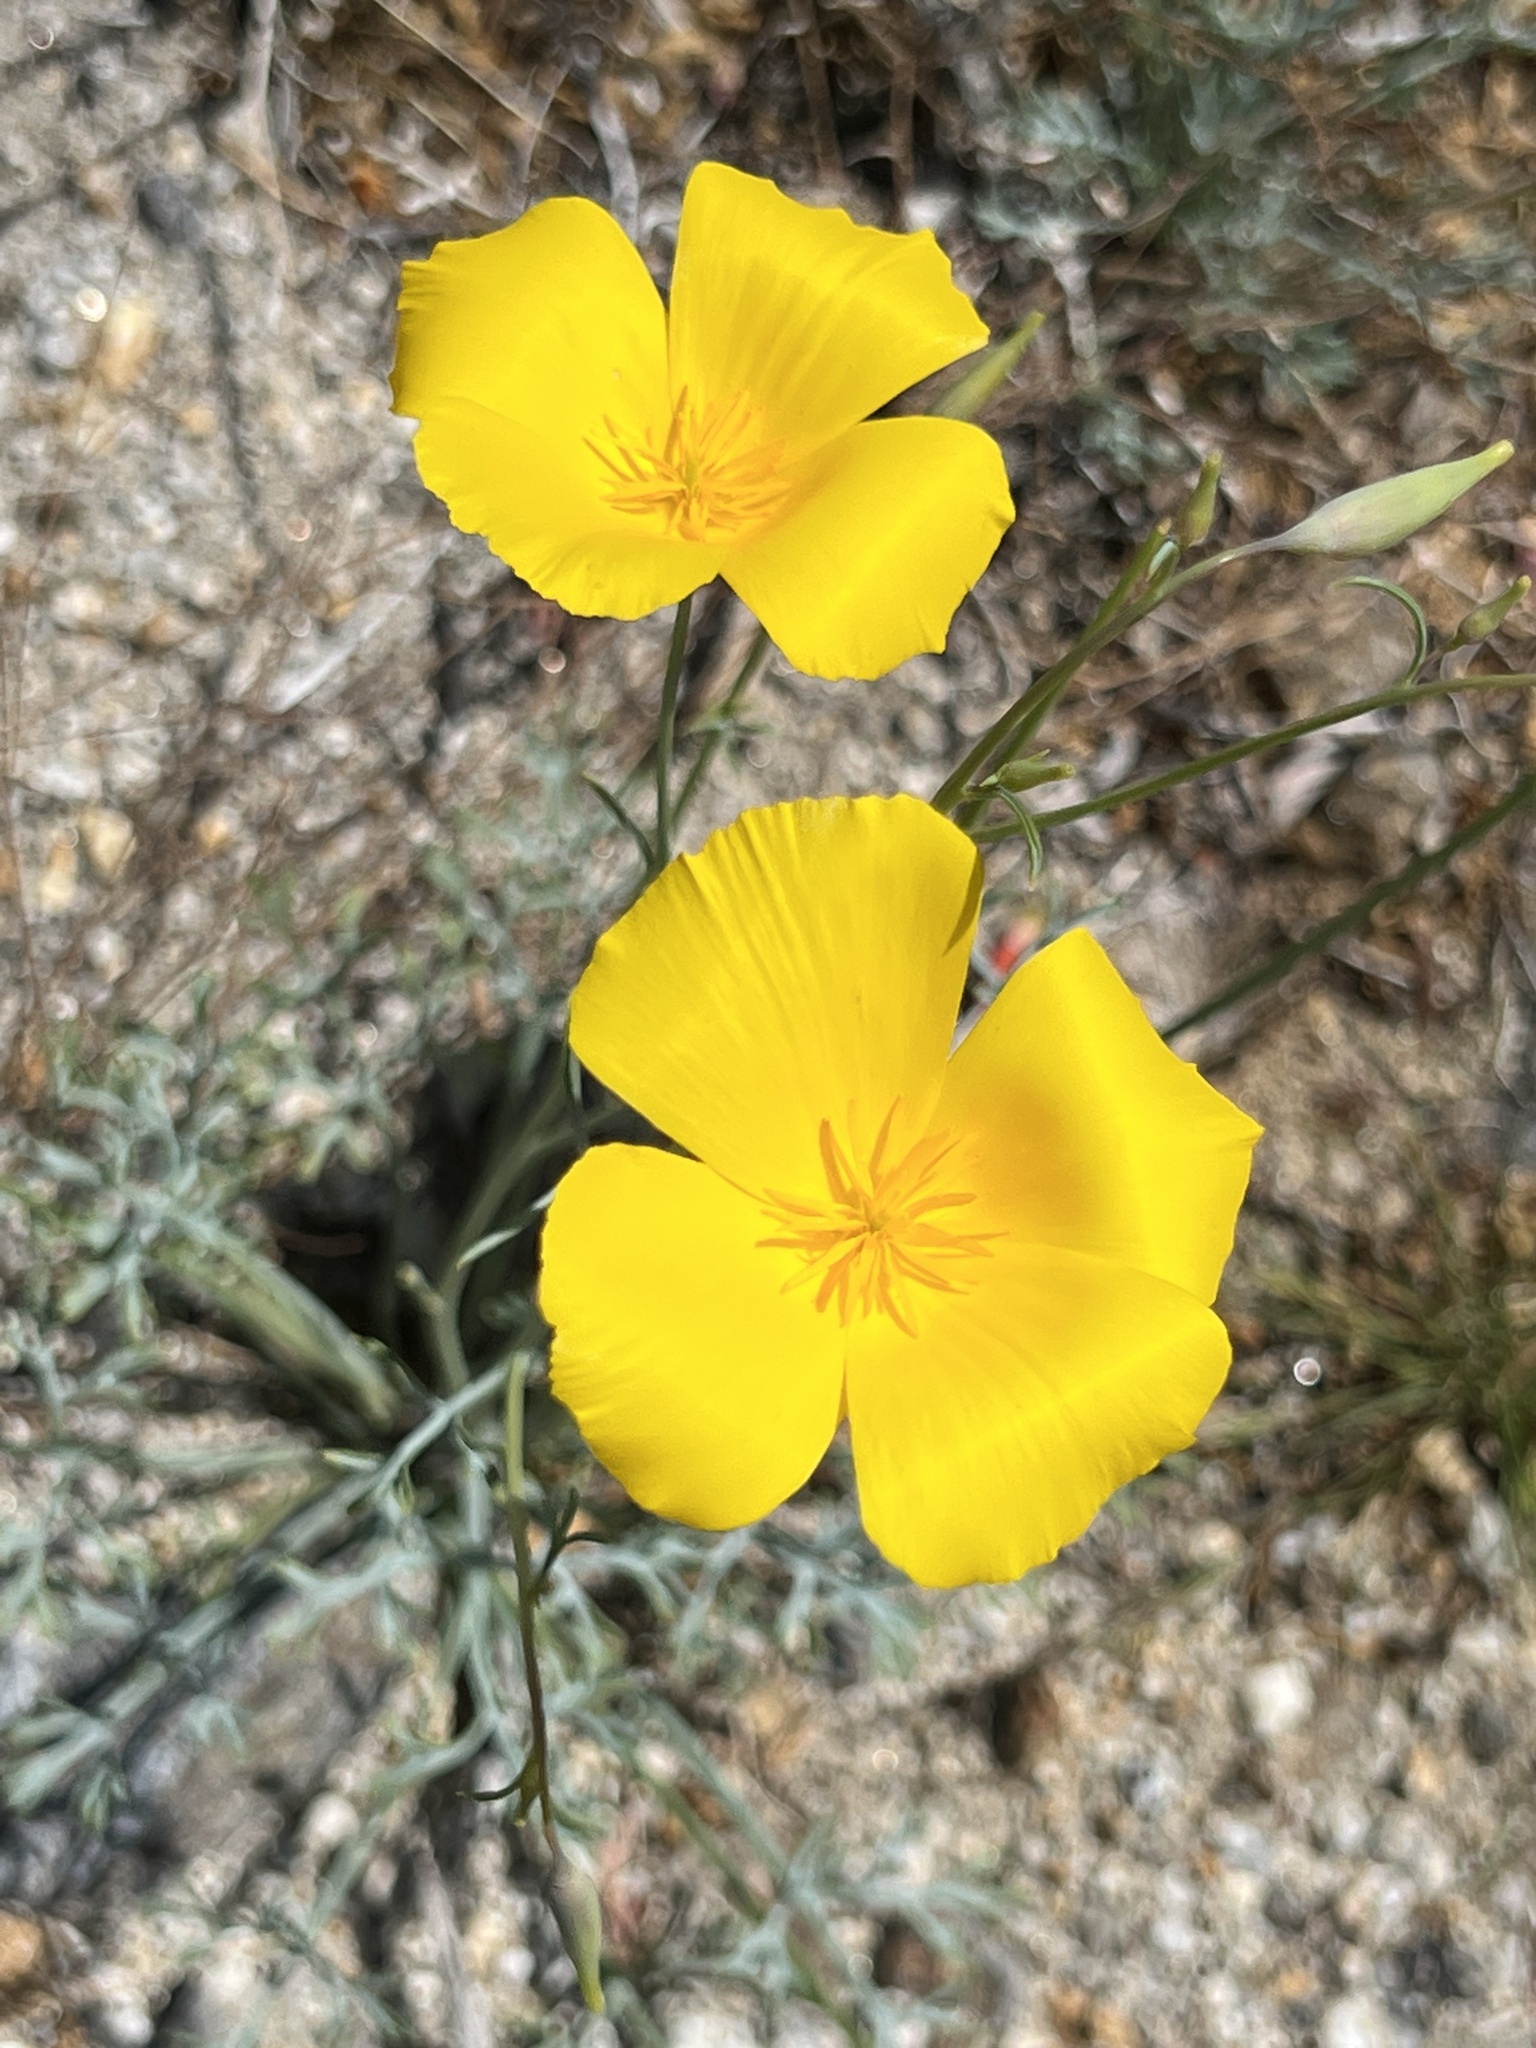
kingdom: Plantae
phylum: Tracheophyta
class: Magnoliopsida
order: Ranunculales
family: Papaveraceae
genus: Eschscholzia
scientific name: Eschscholzia parishii
